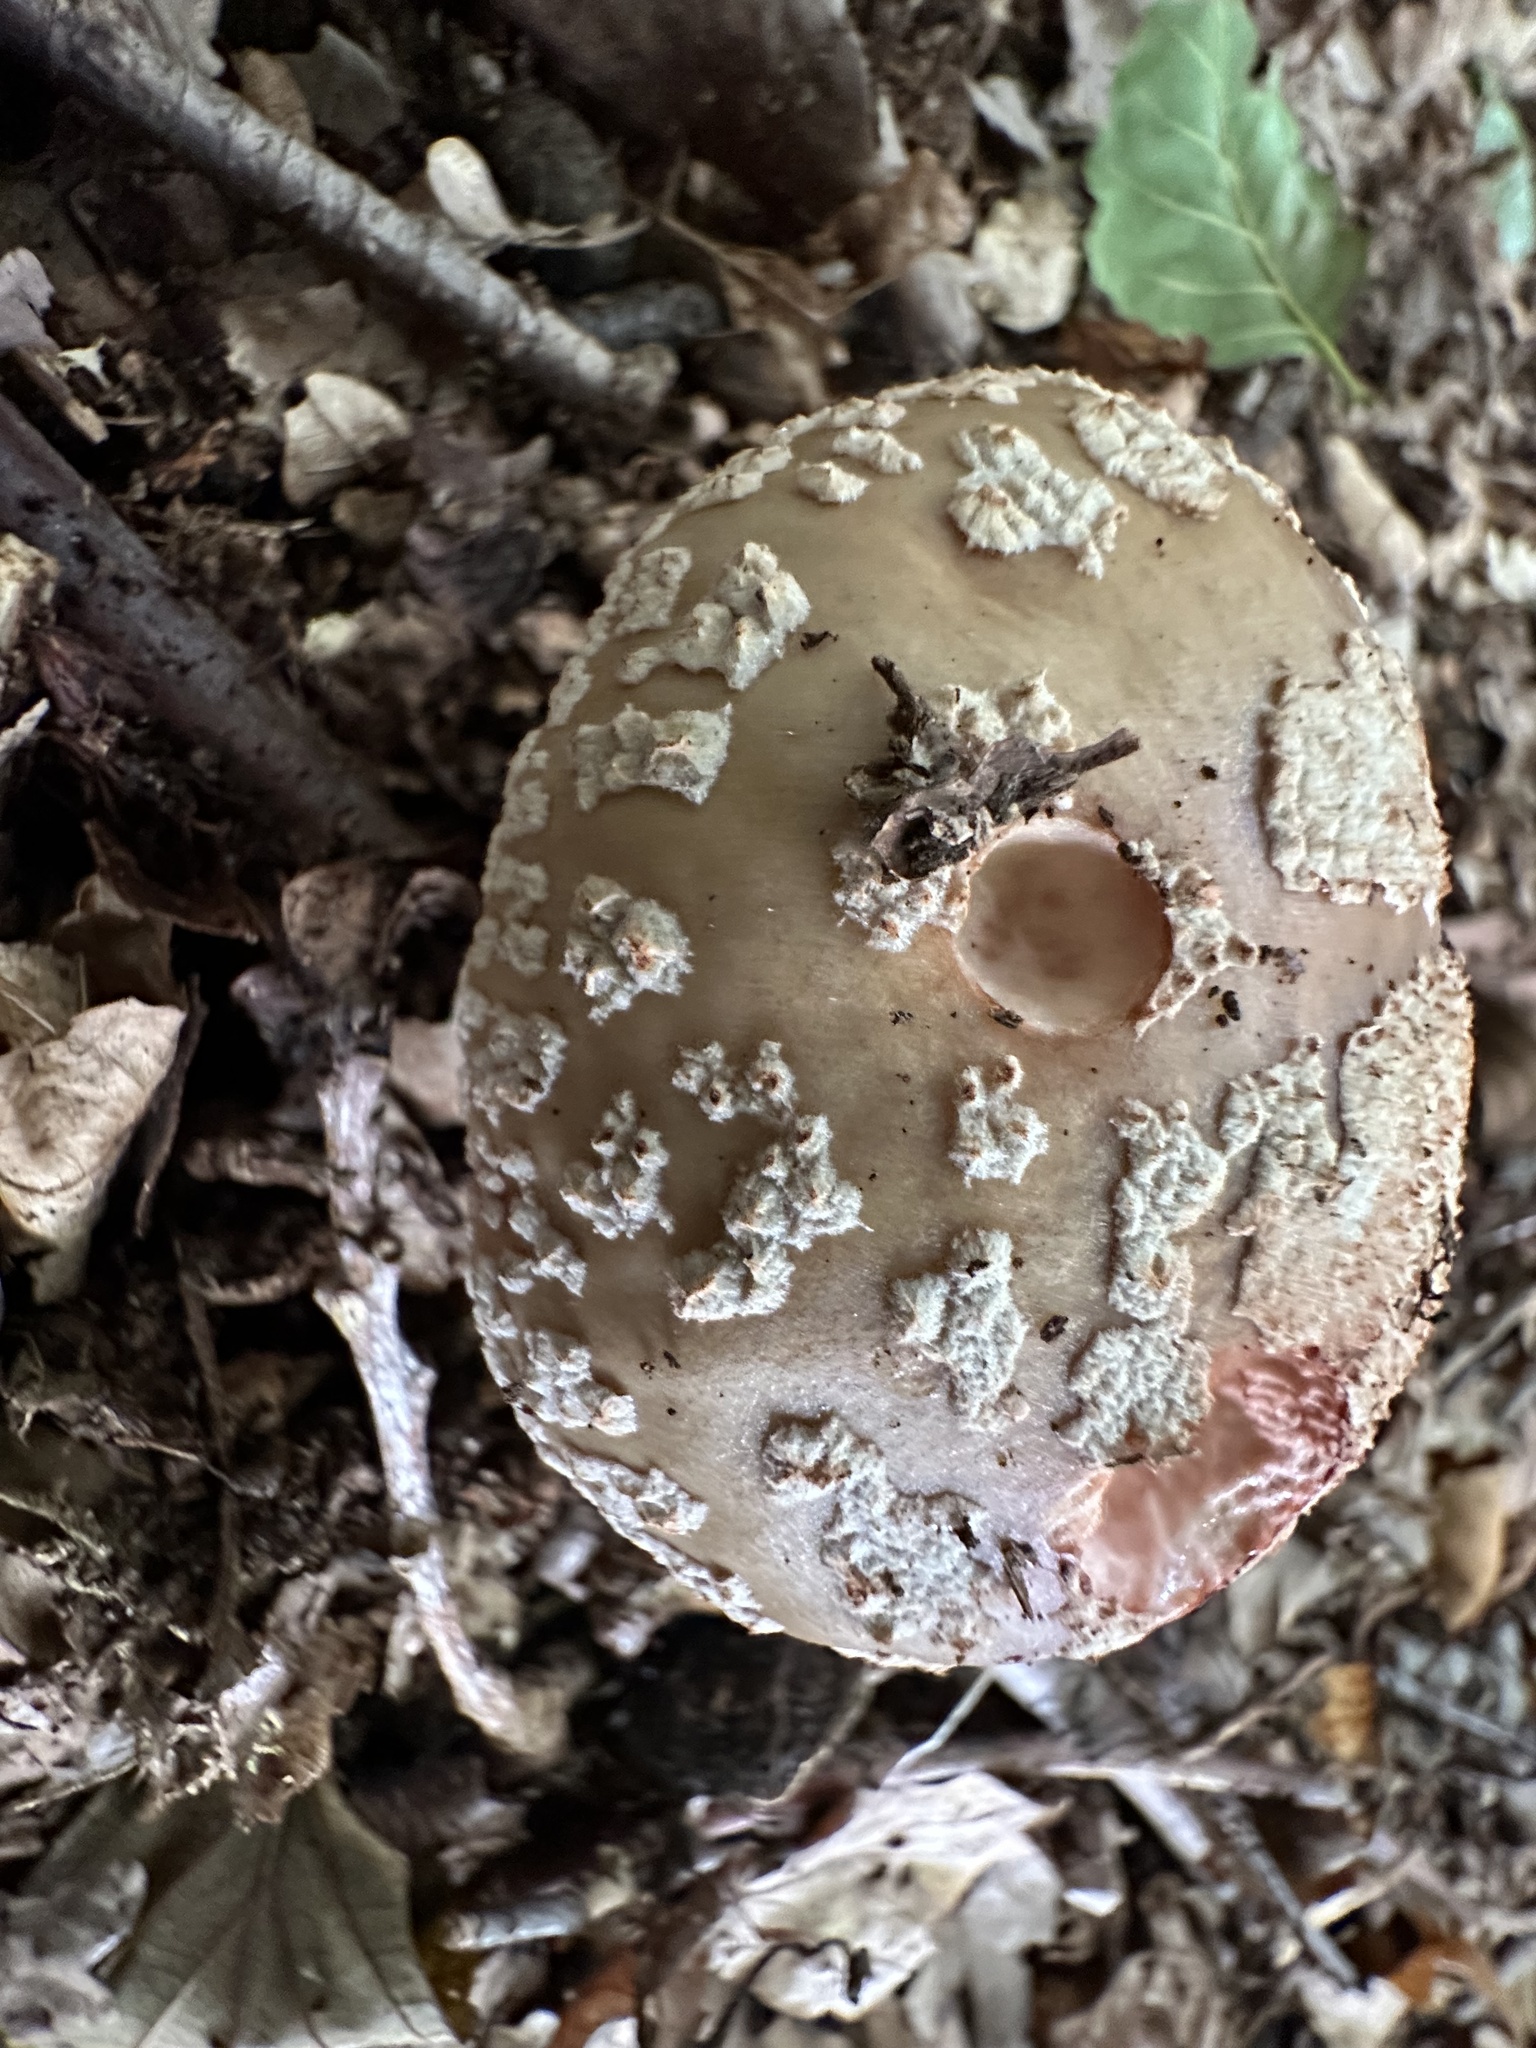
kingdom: Fungi
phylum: Basidiomycota
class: Agaricomycetes
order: Agaricales
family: Amanitaceae
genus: Amanita
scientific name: Amanita rubescens
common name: Blusher
